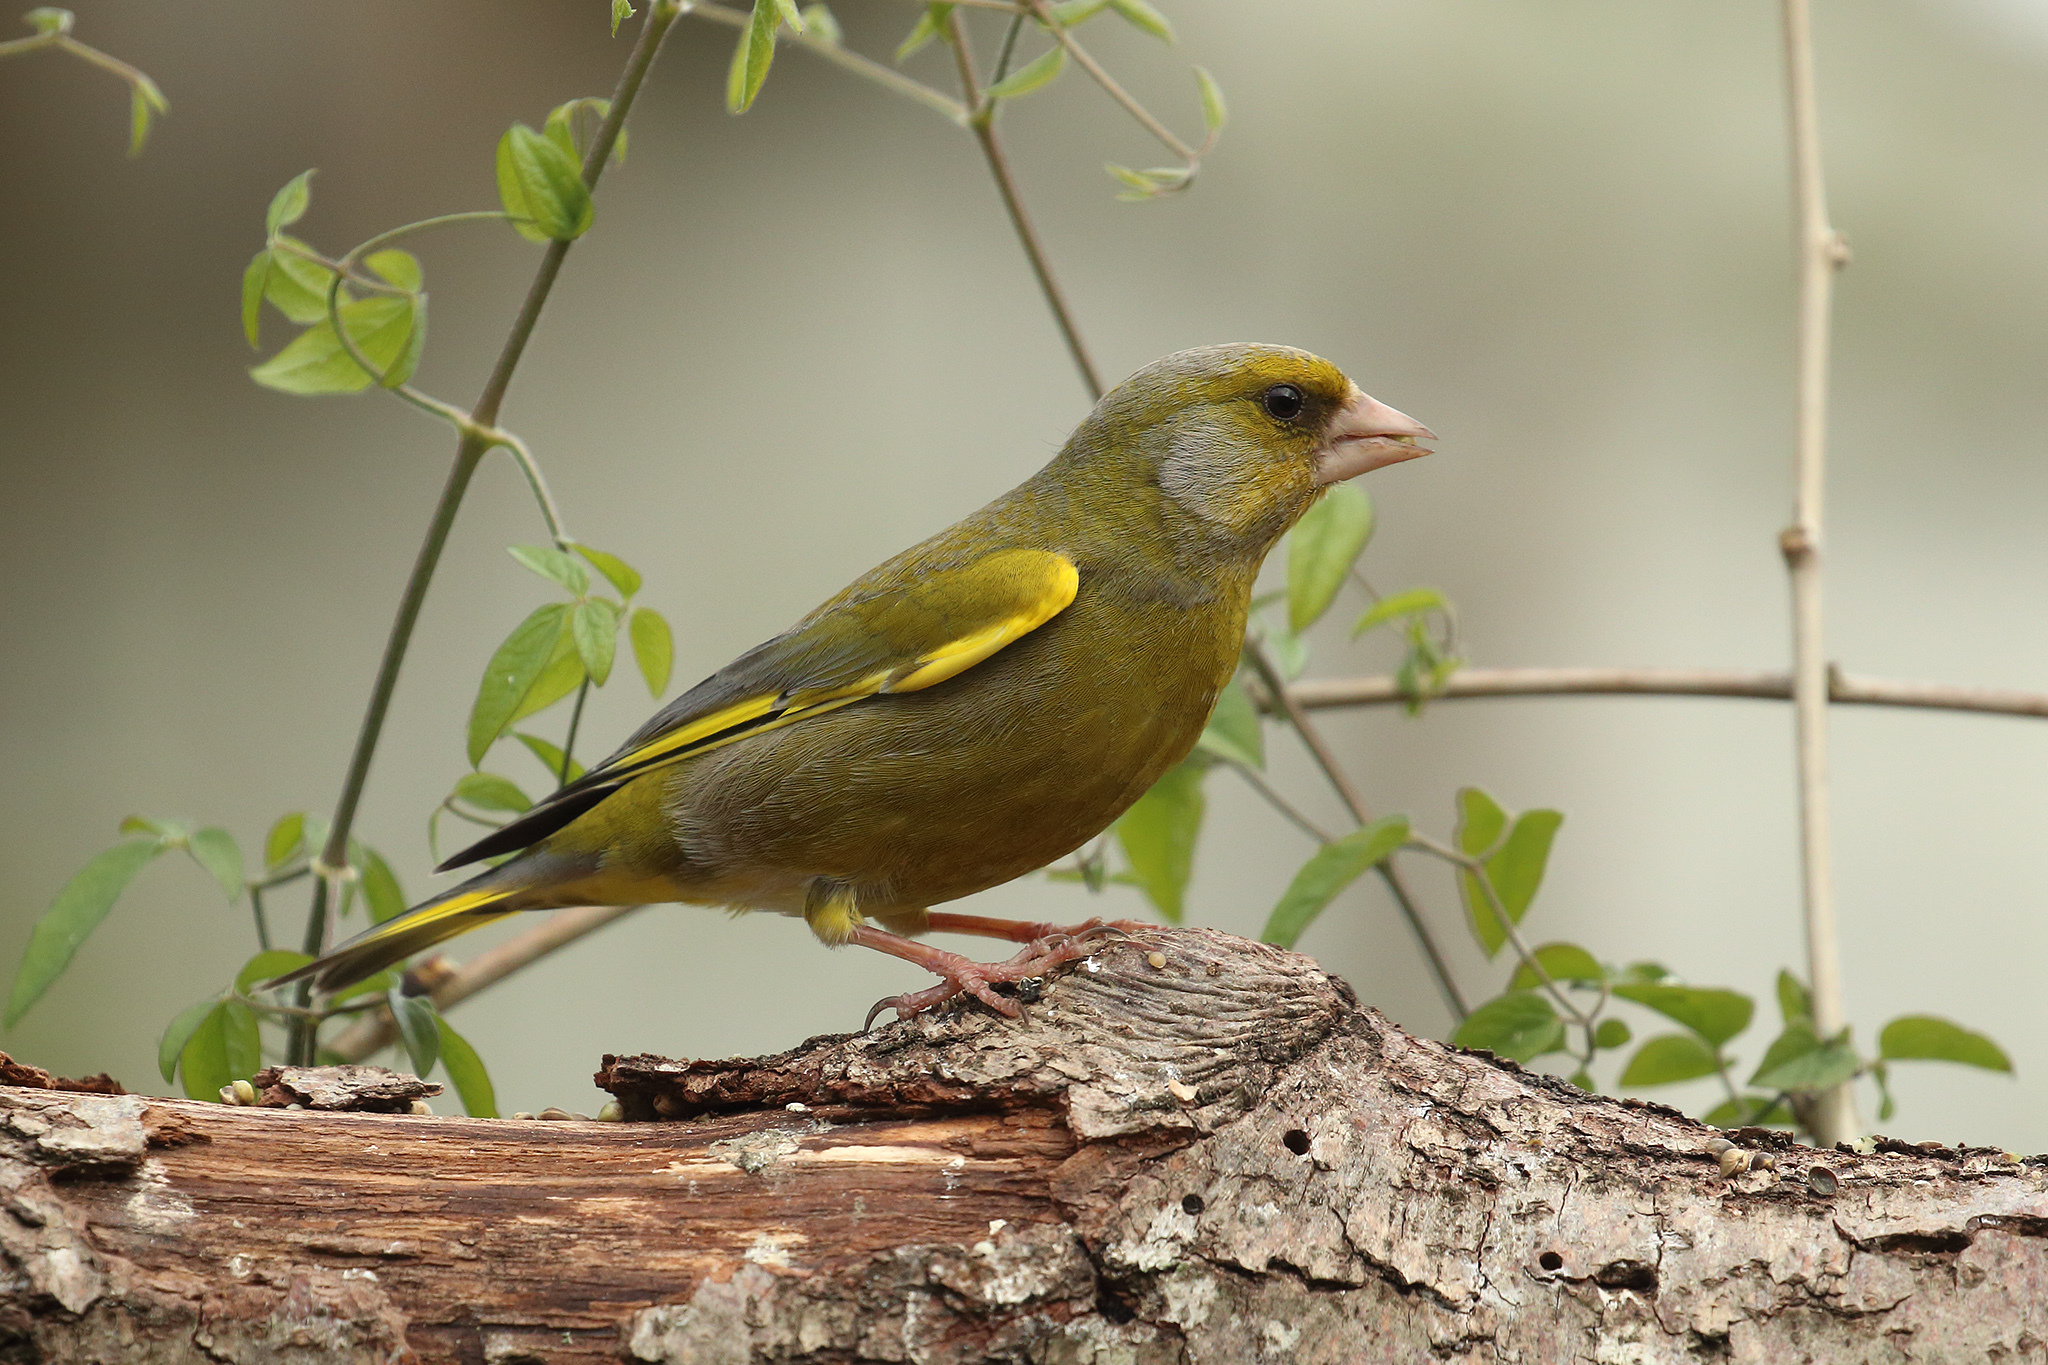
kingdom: Plantae
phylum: Tracheophyta
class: Liliopsida
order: Poales
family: Poaceae
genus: Chloris
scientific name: Chloris chloris
